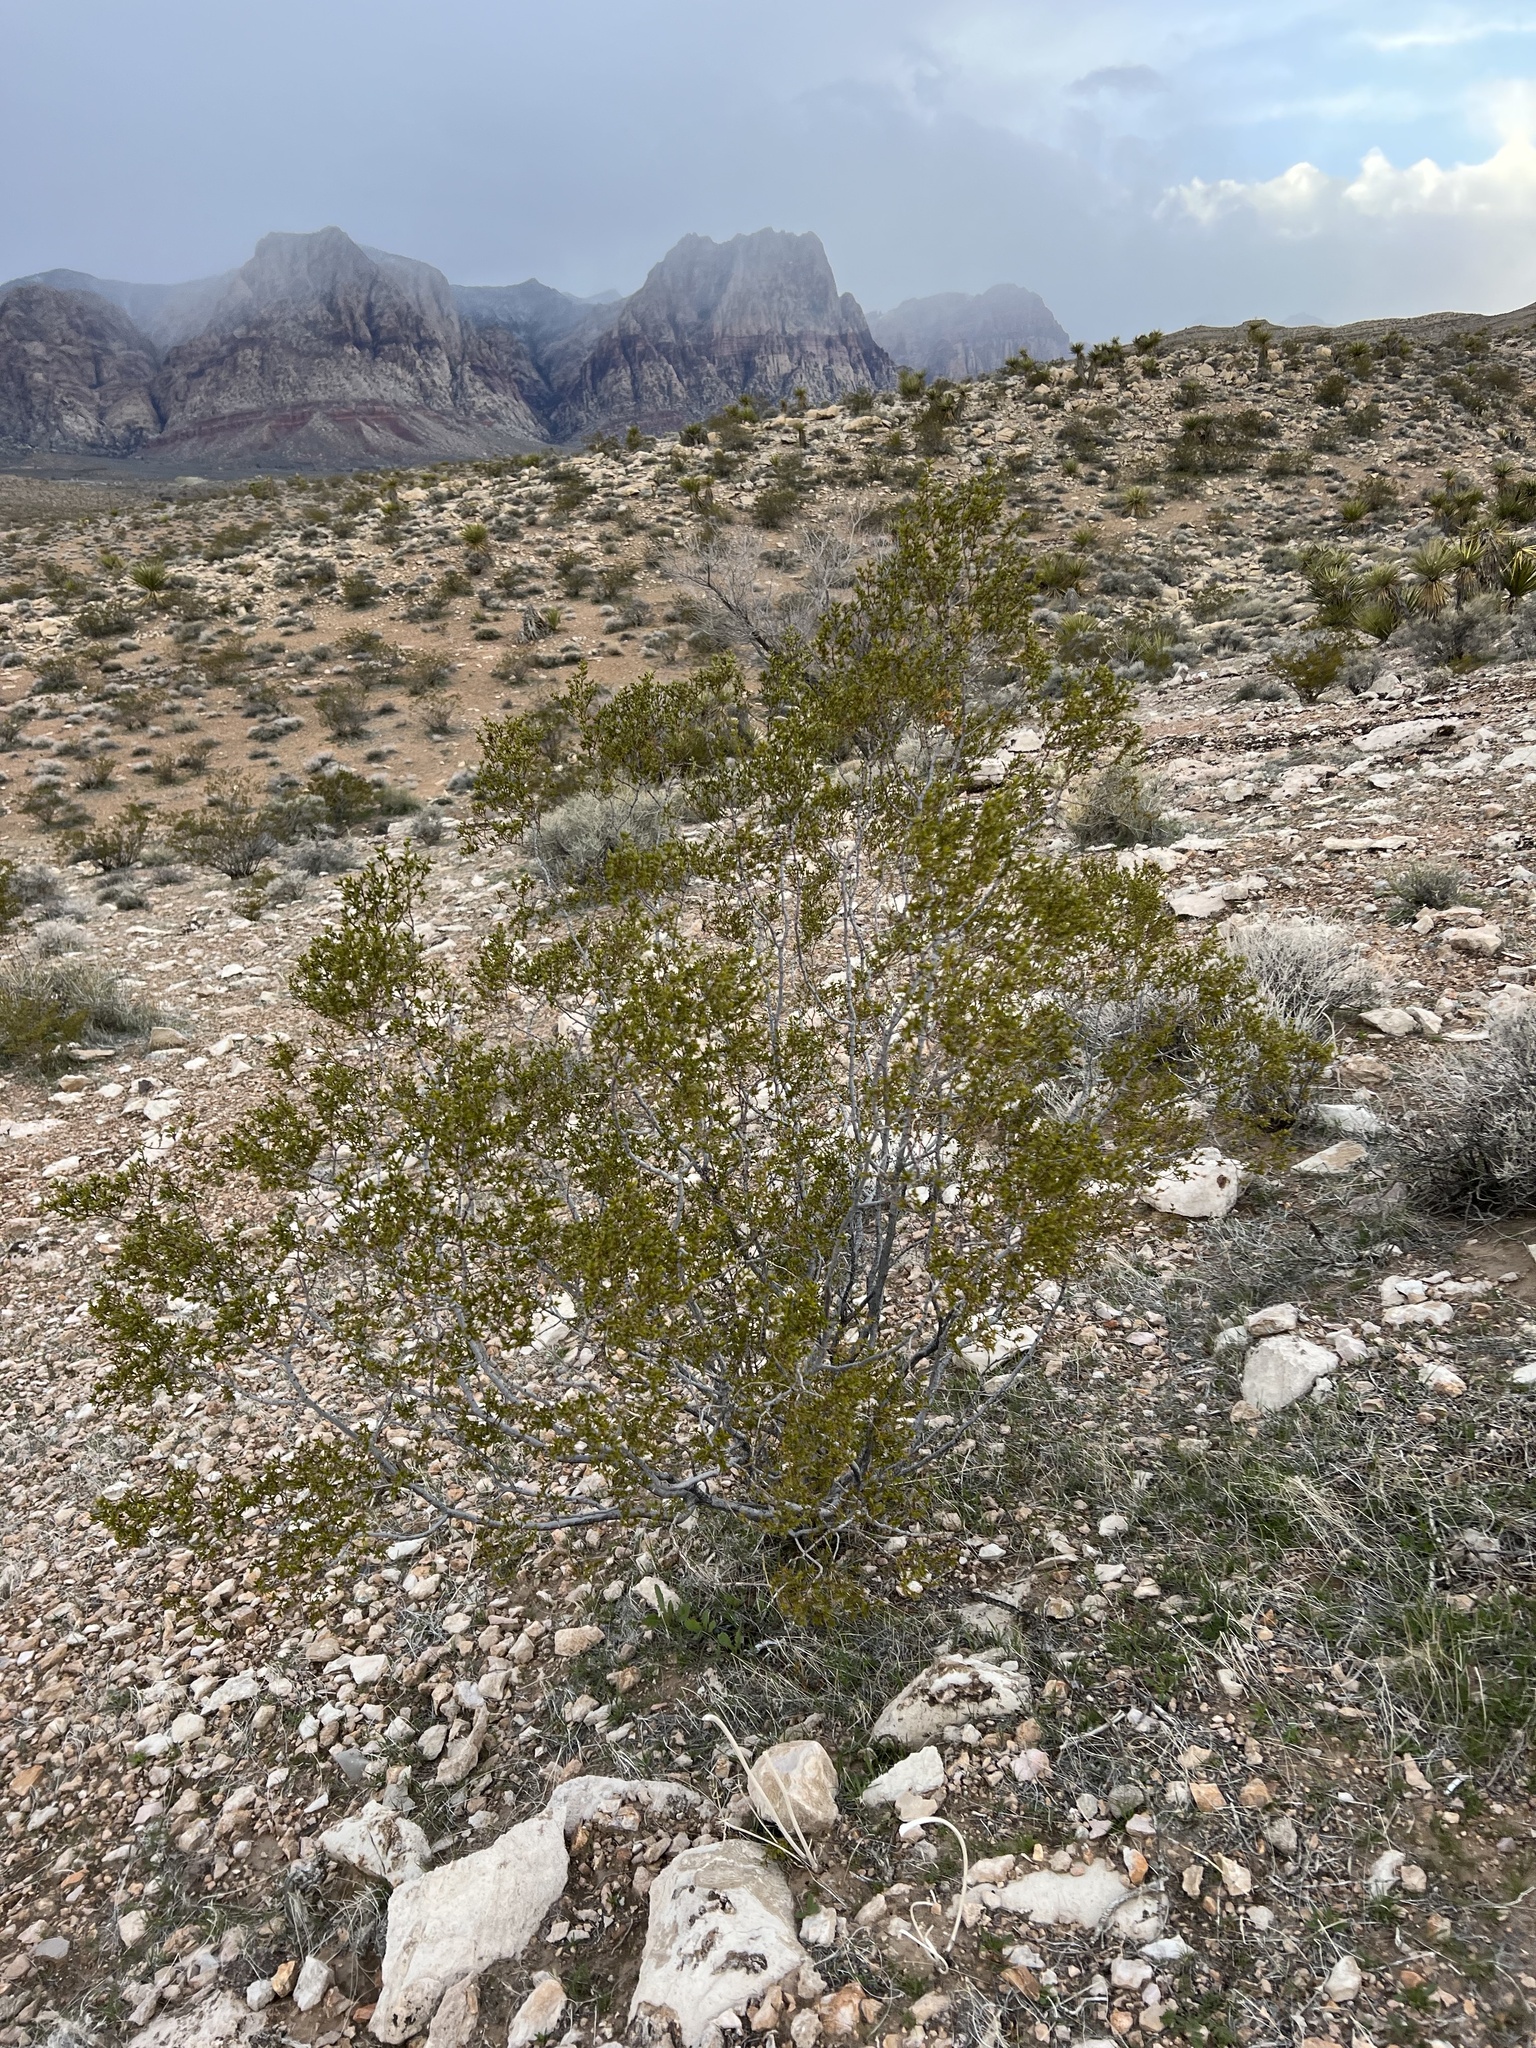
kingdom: Plantae
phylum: Tracheophyta
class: Magnoliopsida
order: Zygophyllales
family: Zygophyllaceae
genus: Larrea
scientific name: Larrea tridentata
